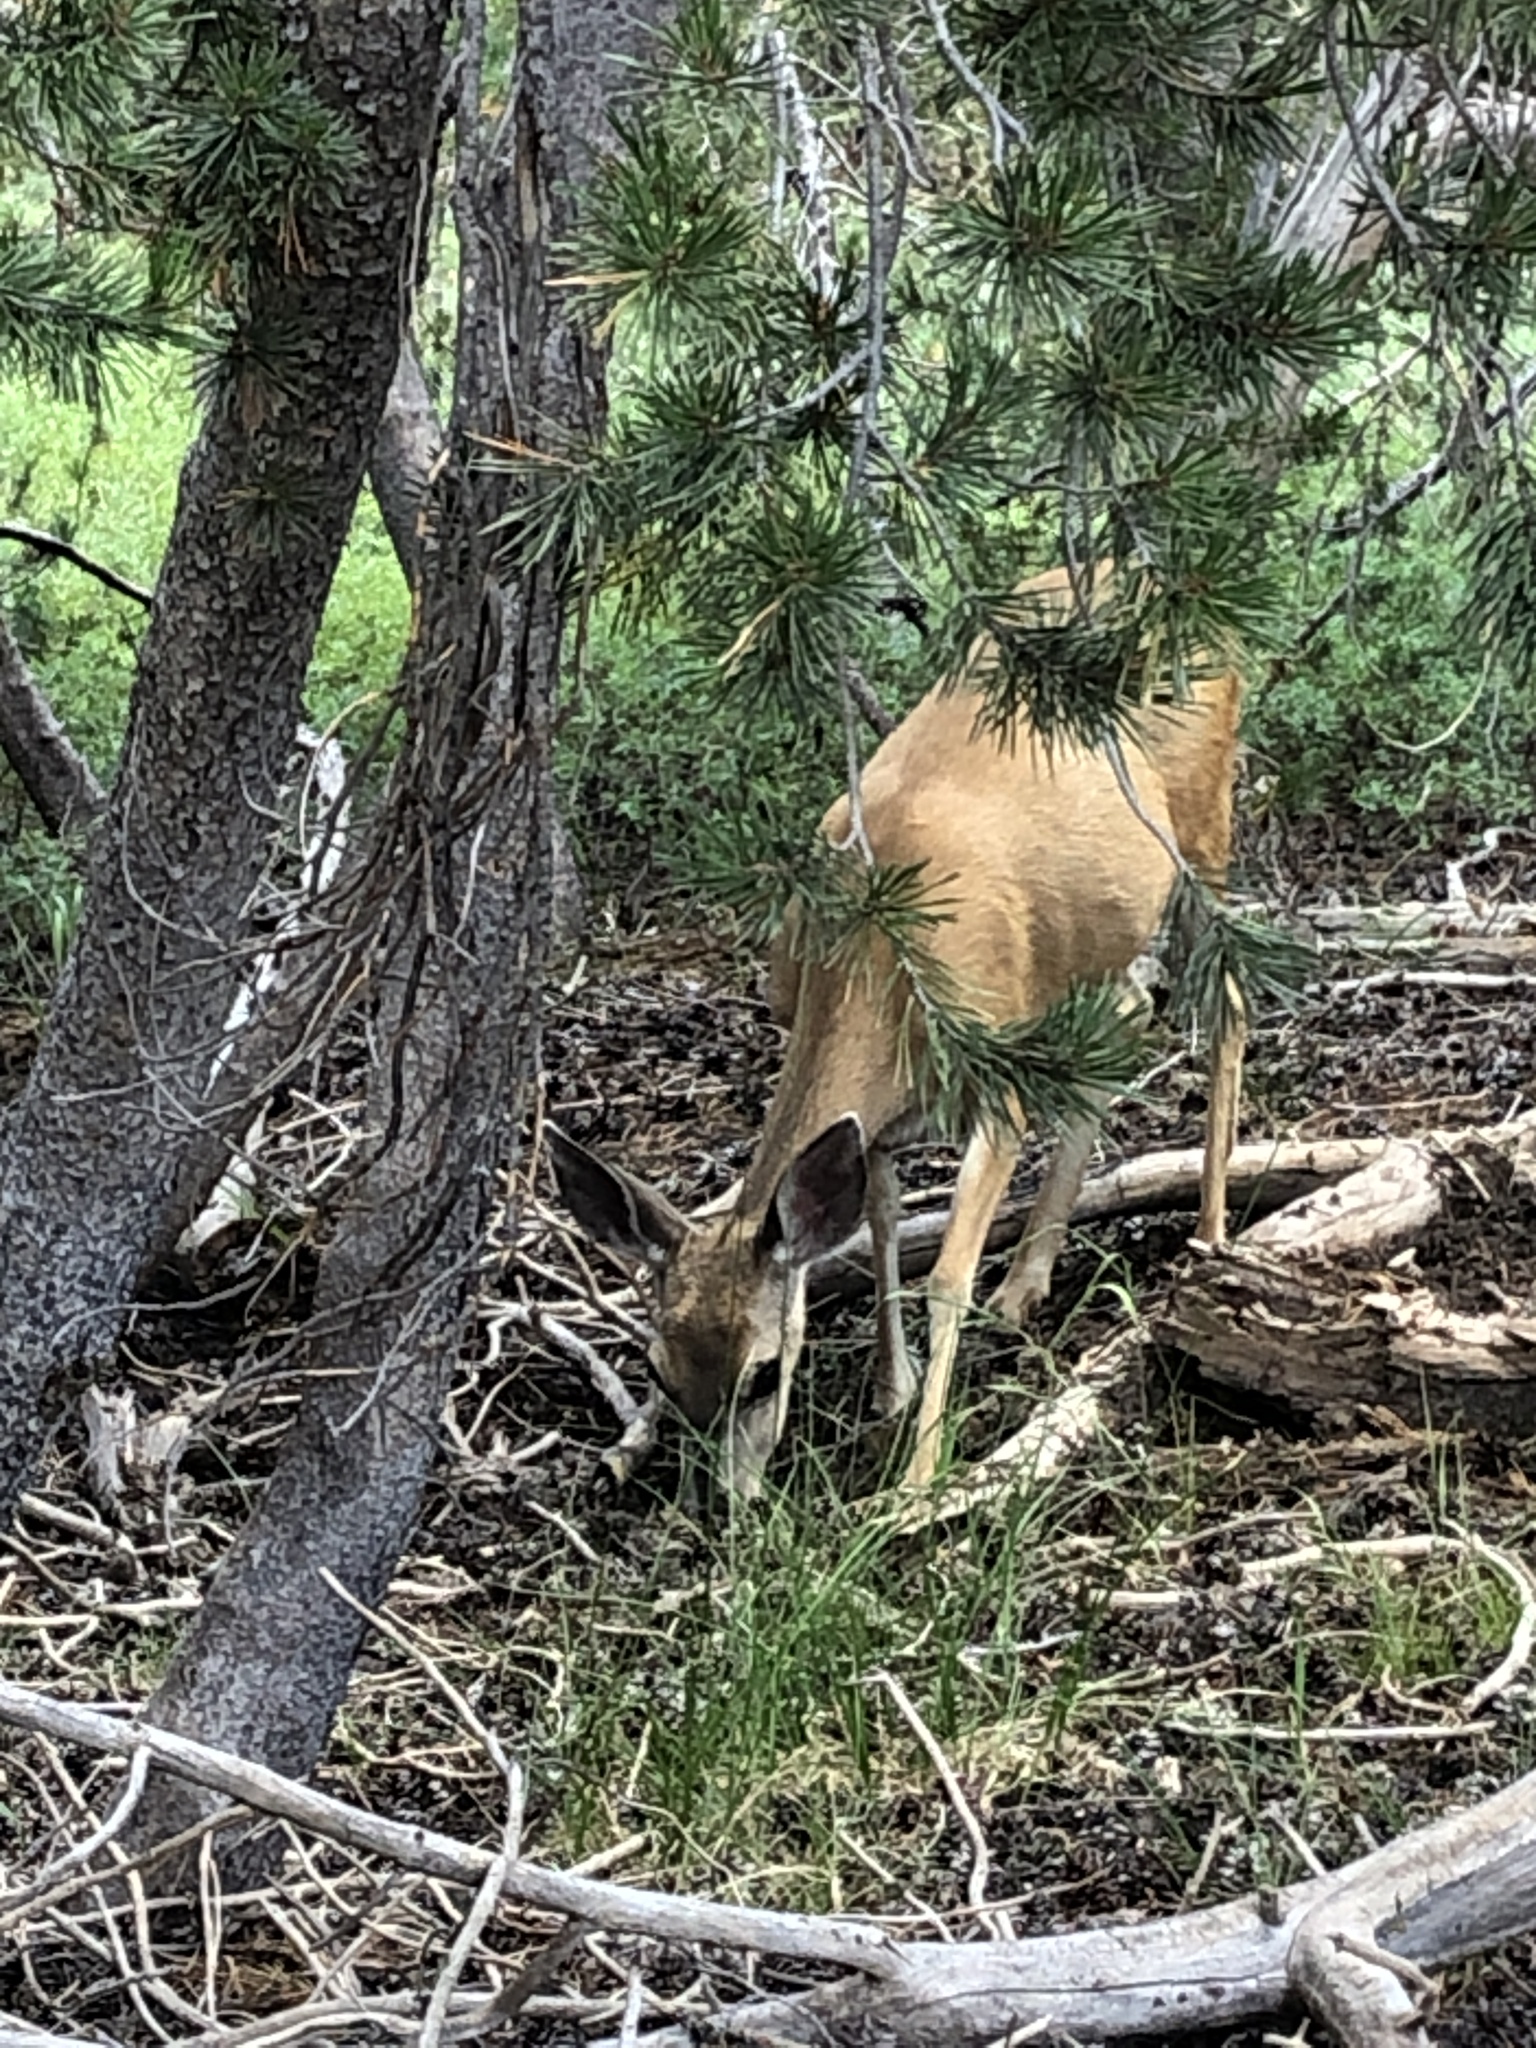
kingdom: Animalia
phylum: Chordata
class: Mammalia
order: Artiodactyla
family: Cervidae
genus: Odocoileus
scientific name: Odocoileus hemionus
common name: Mule deer
